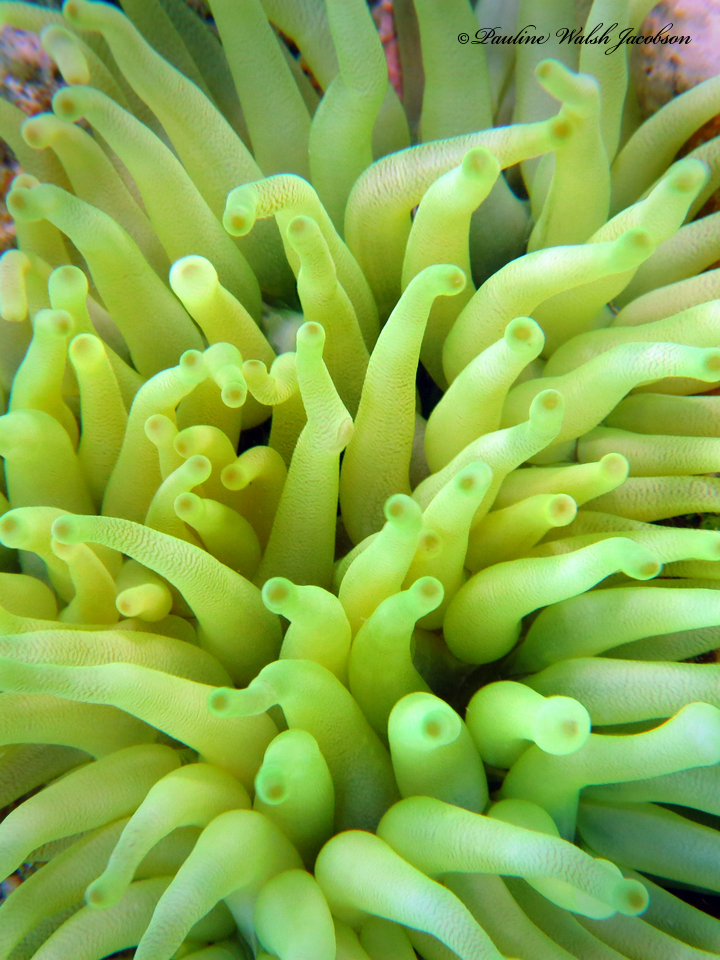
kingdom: Animalia
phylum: Cnidaria
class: Anthozoa
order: Actiniaria
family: Actiniidae
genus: Condylactis
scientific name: Condylactis gigantea
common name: Giant caribbean anemone
